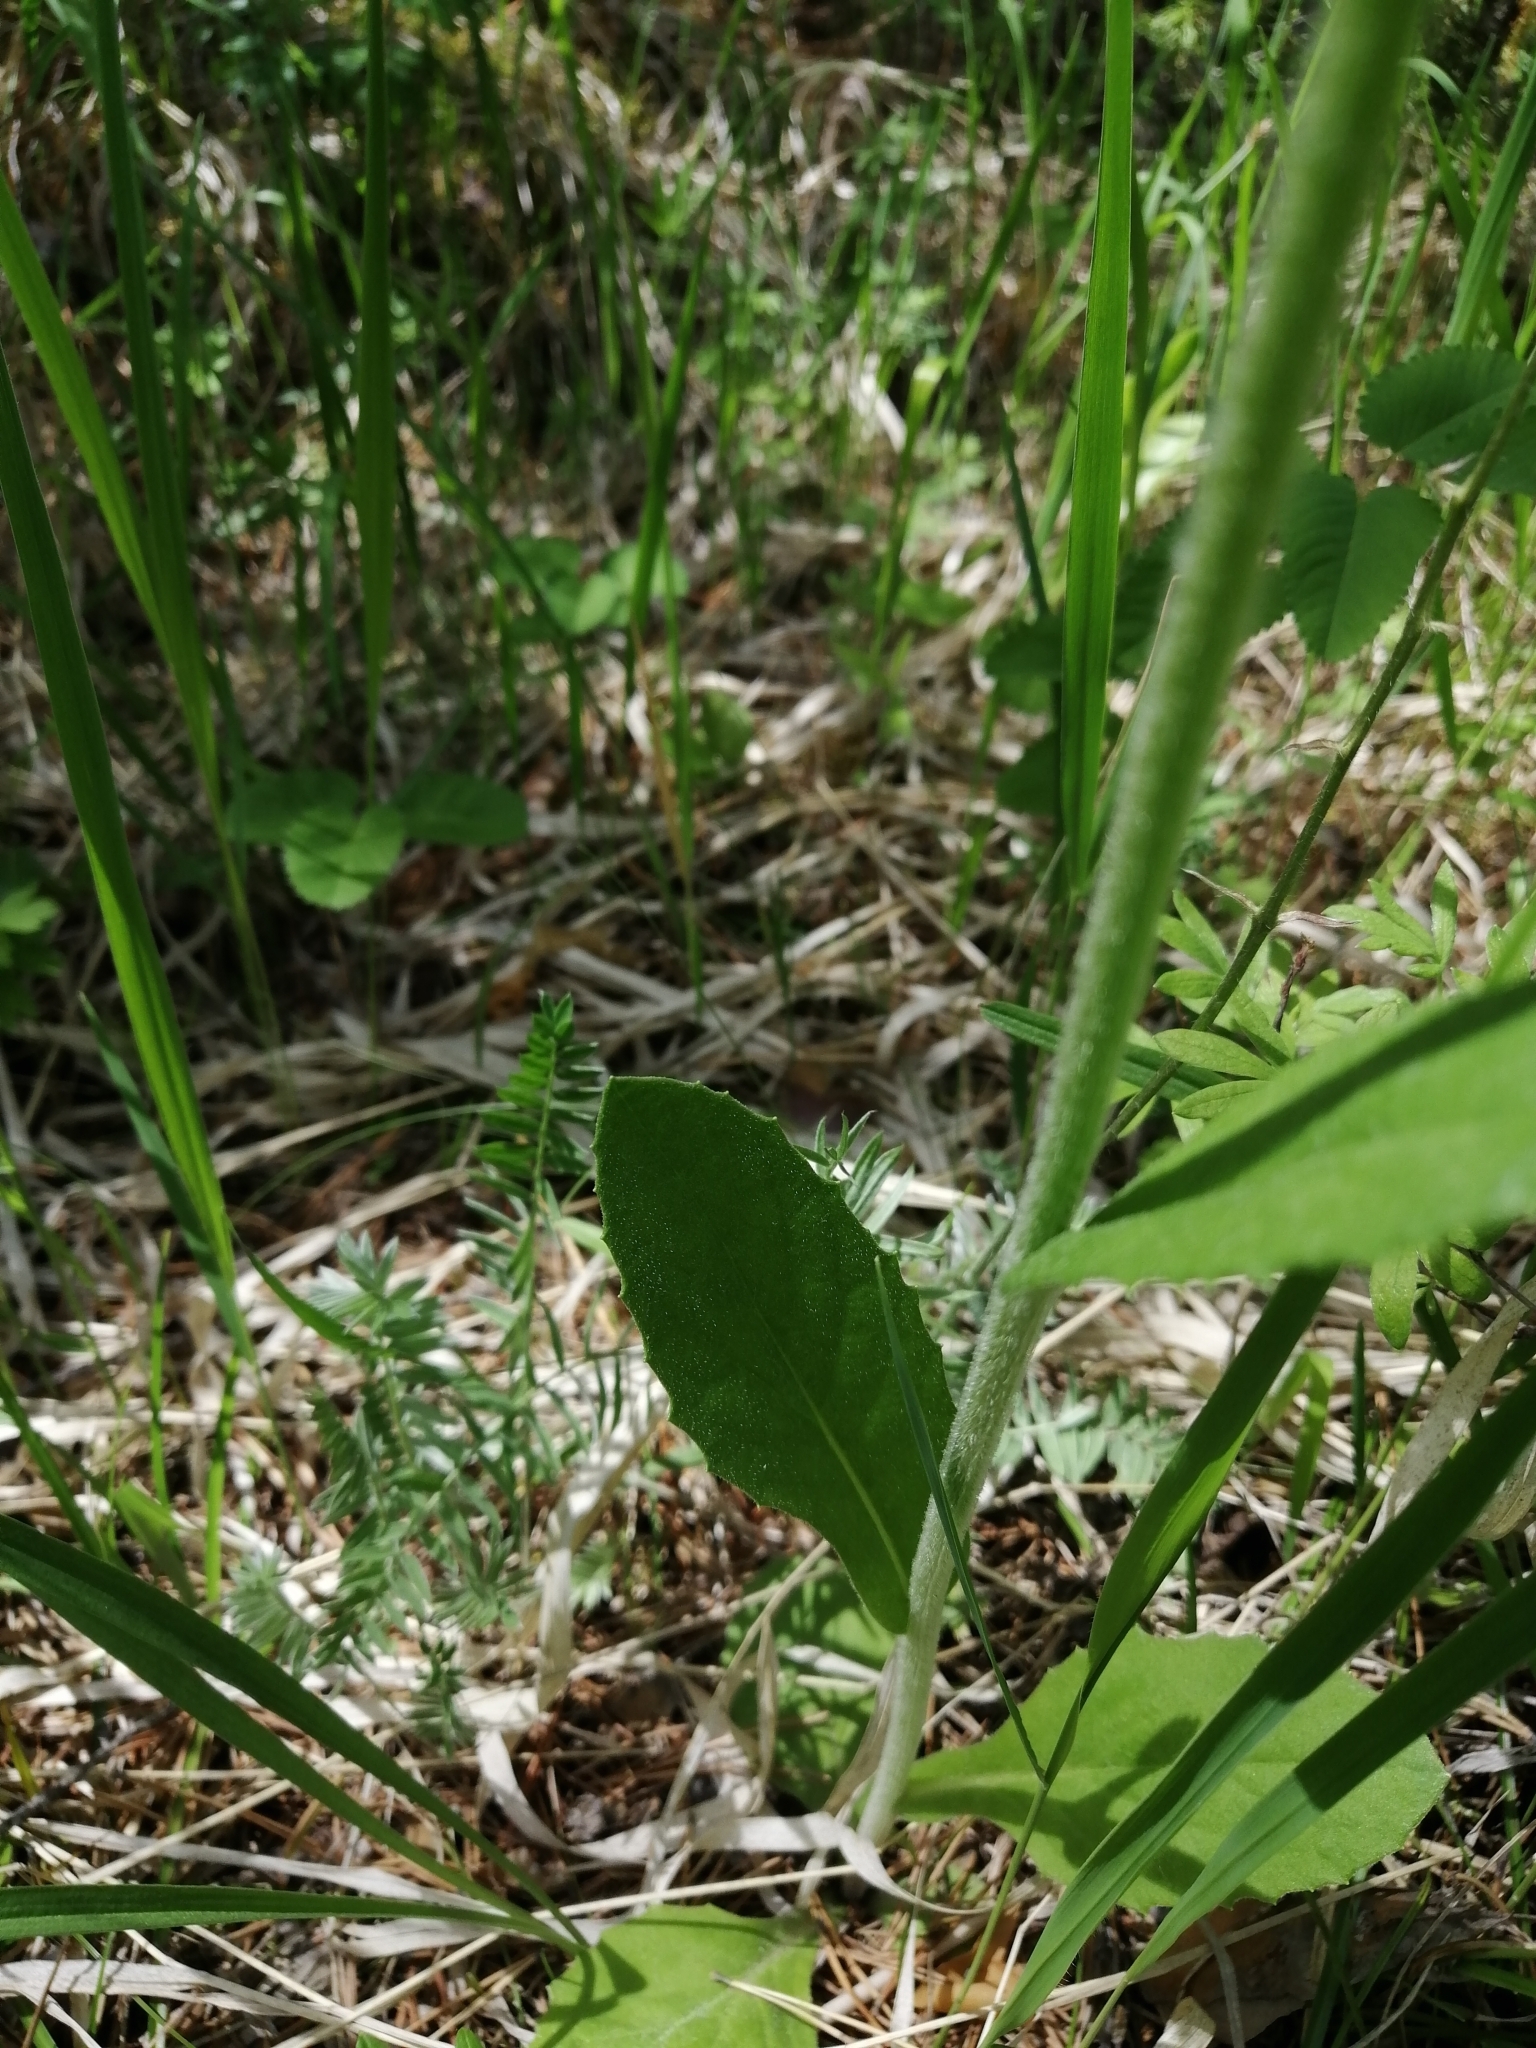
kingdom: Plantae
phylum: Tracheophyta
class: Magnoliopsida
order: Asterales
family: Asteraceae
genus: Tephroseris
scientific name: Tephroseris porphyrantha
